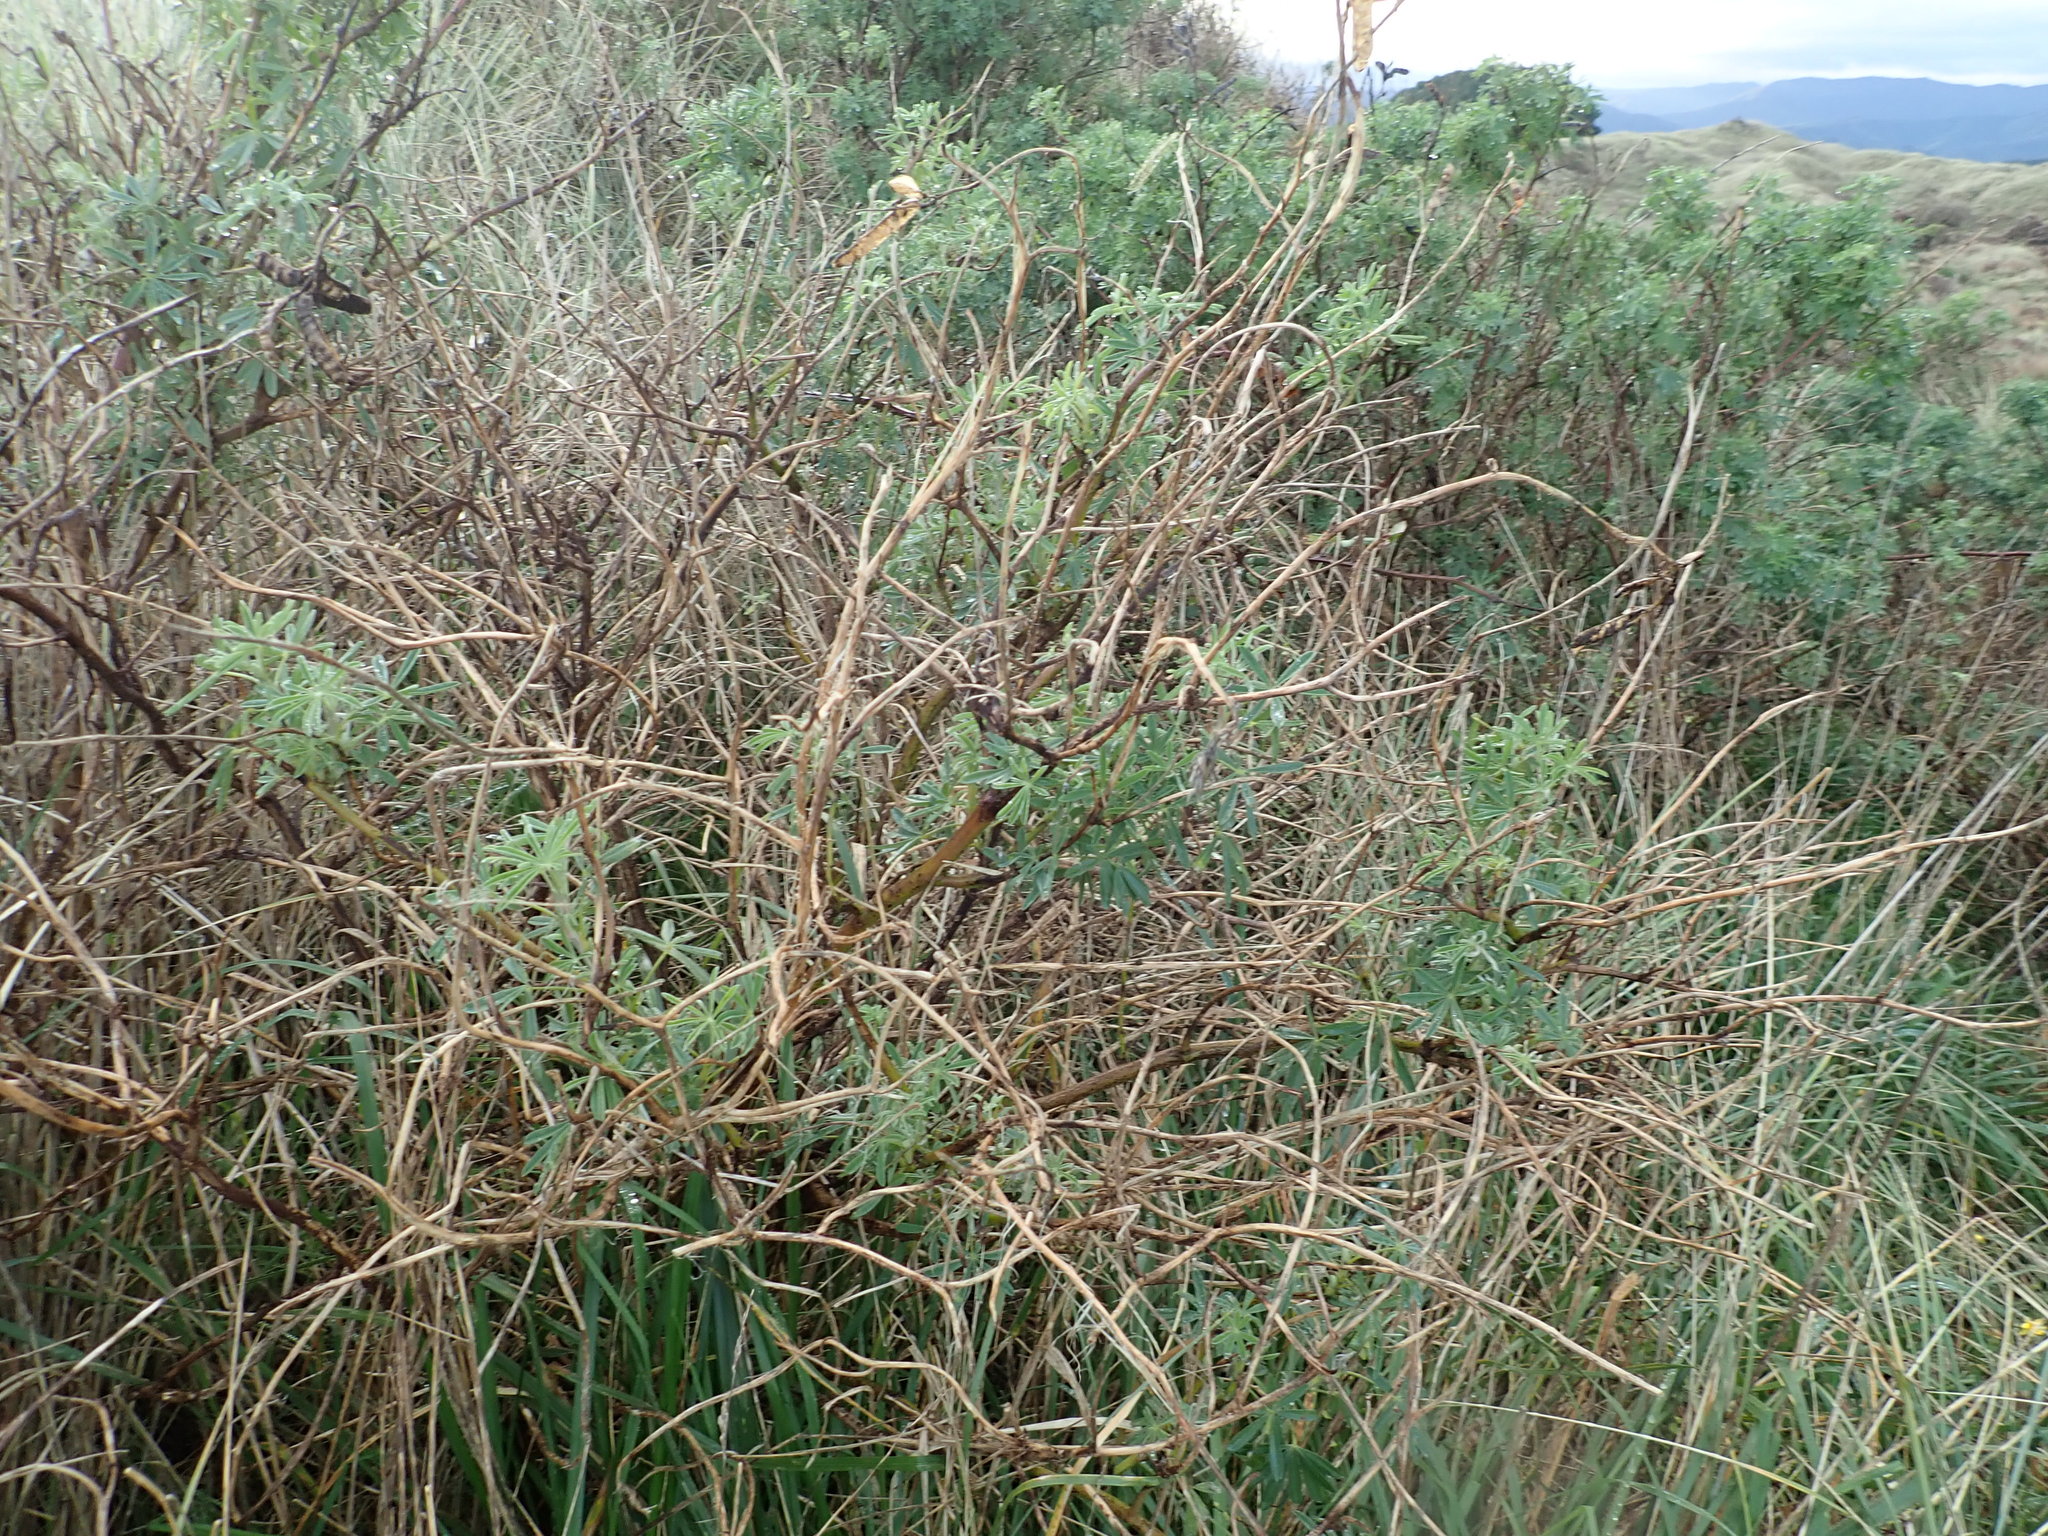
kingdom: Plantae
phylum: Tracheophyta
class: Magnoliopsida
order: Fabales
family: Fabaceae
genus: Lupinus
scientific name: Lupinus arboreus
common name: Yellow bush lupine
